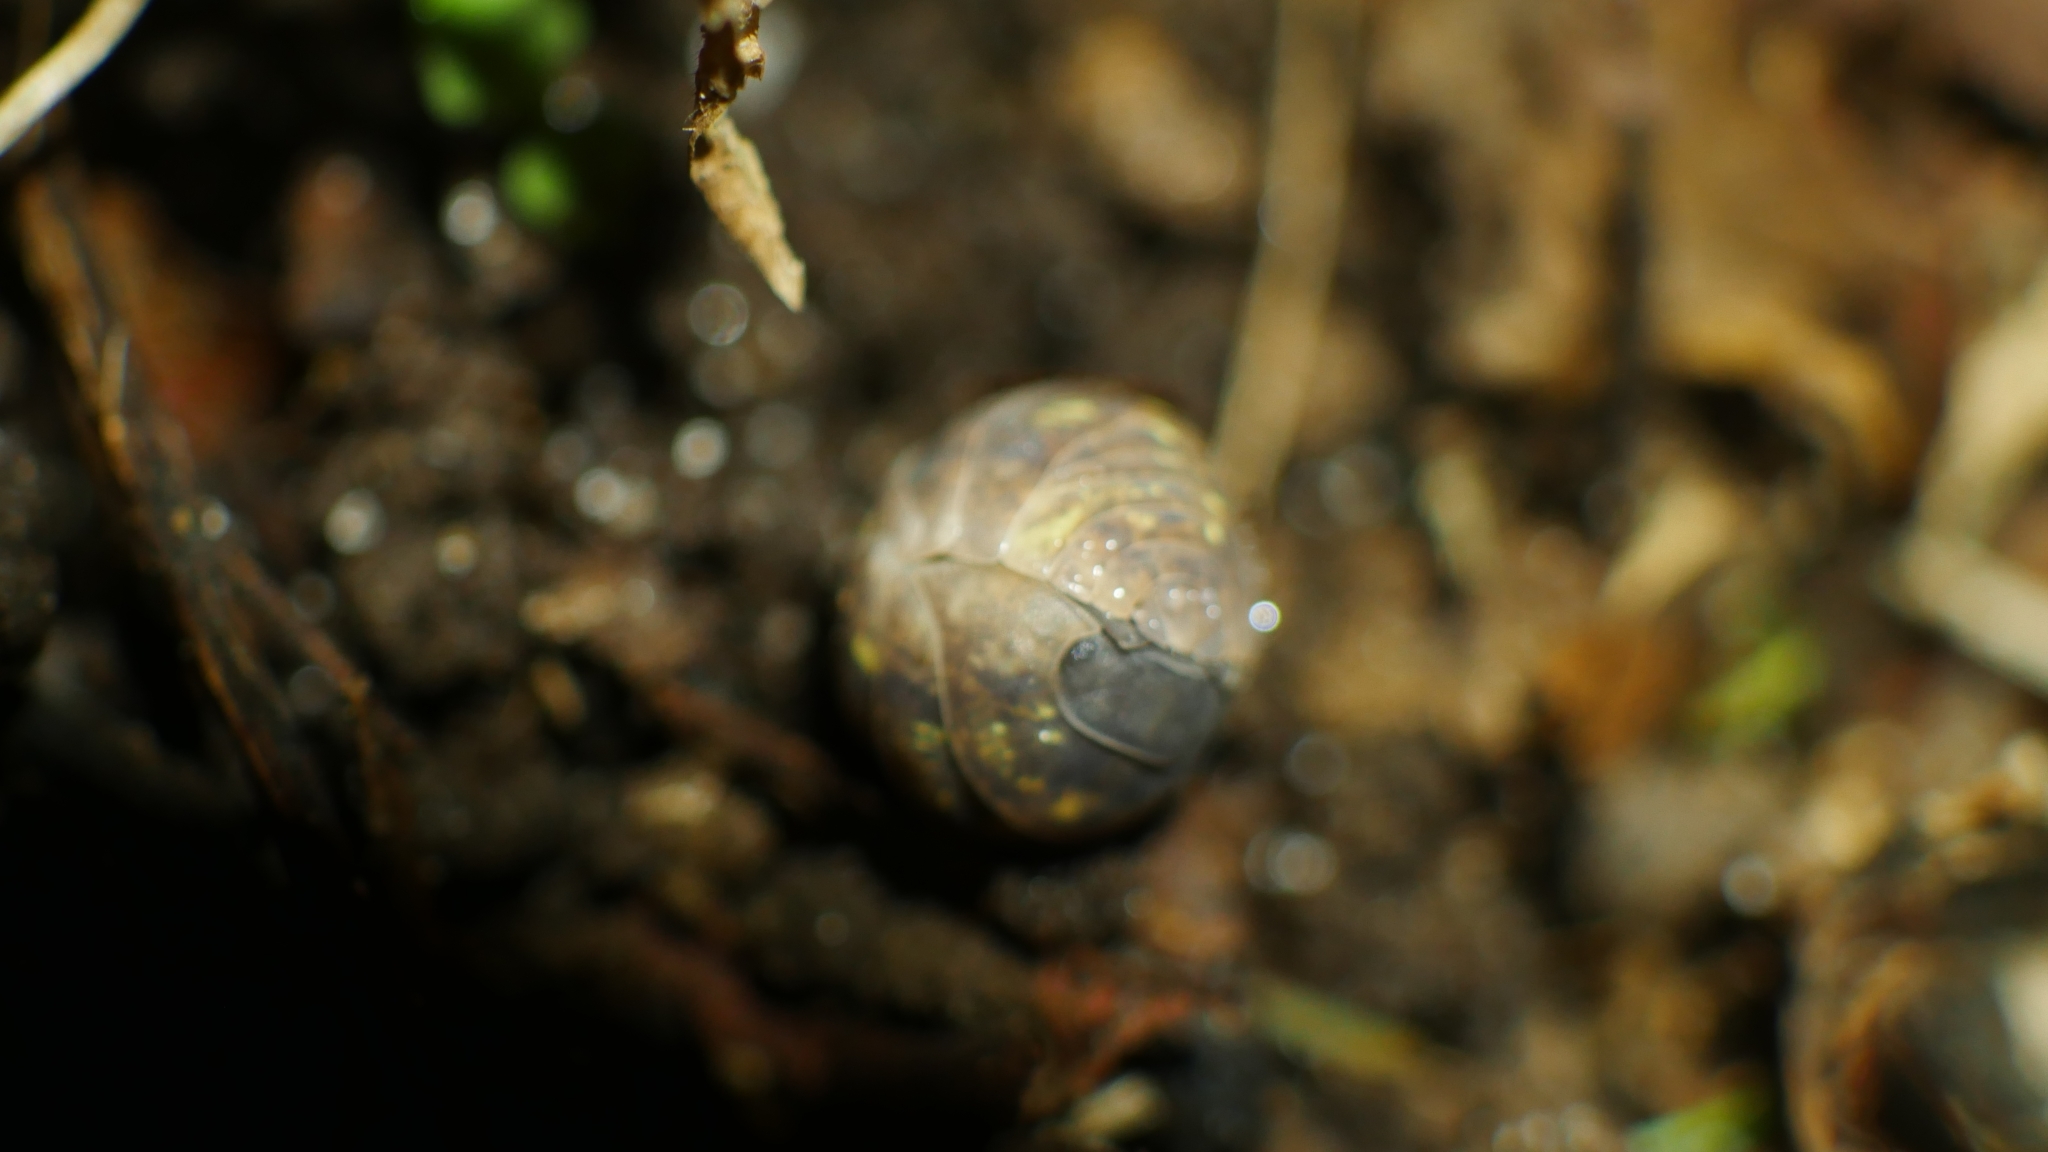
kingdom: Animalia
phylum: Arthropoda
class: Malacostraca
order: Isopoda
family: Armadillidiidae
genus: Armadillidium
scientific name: Armadillidium vulgare
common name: Common pill woodlouse
